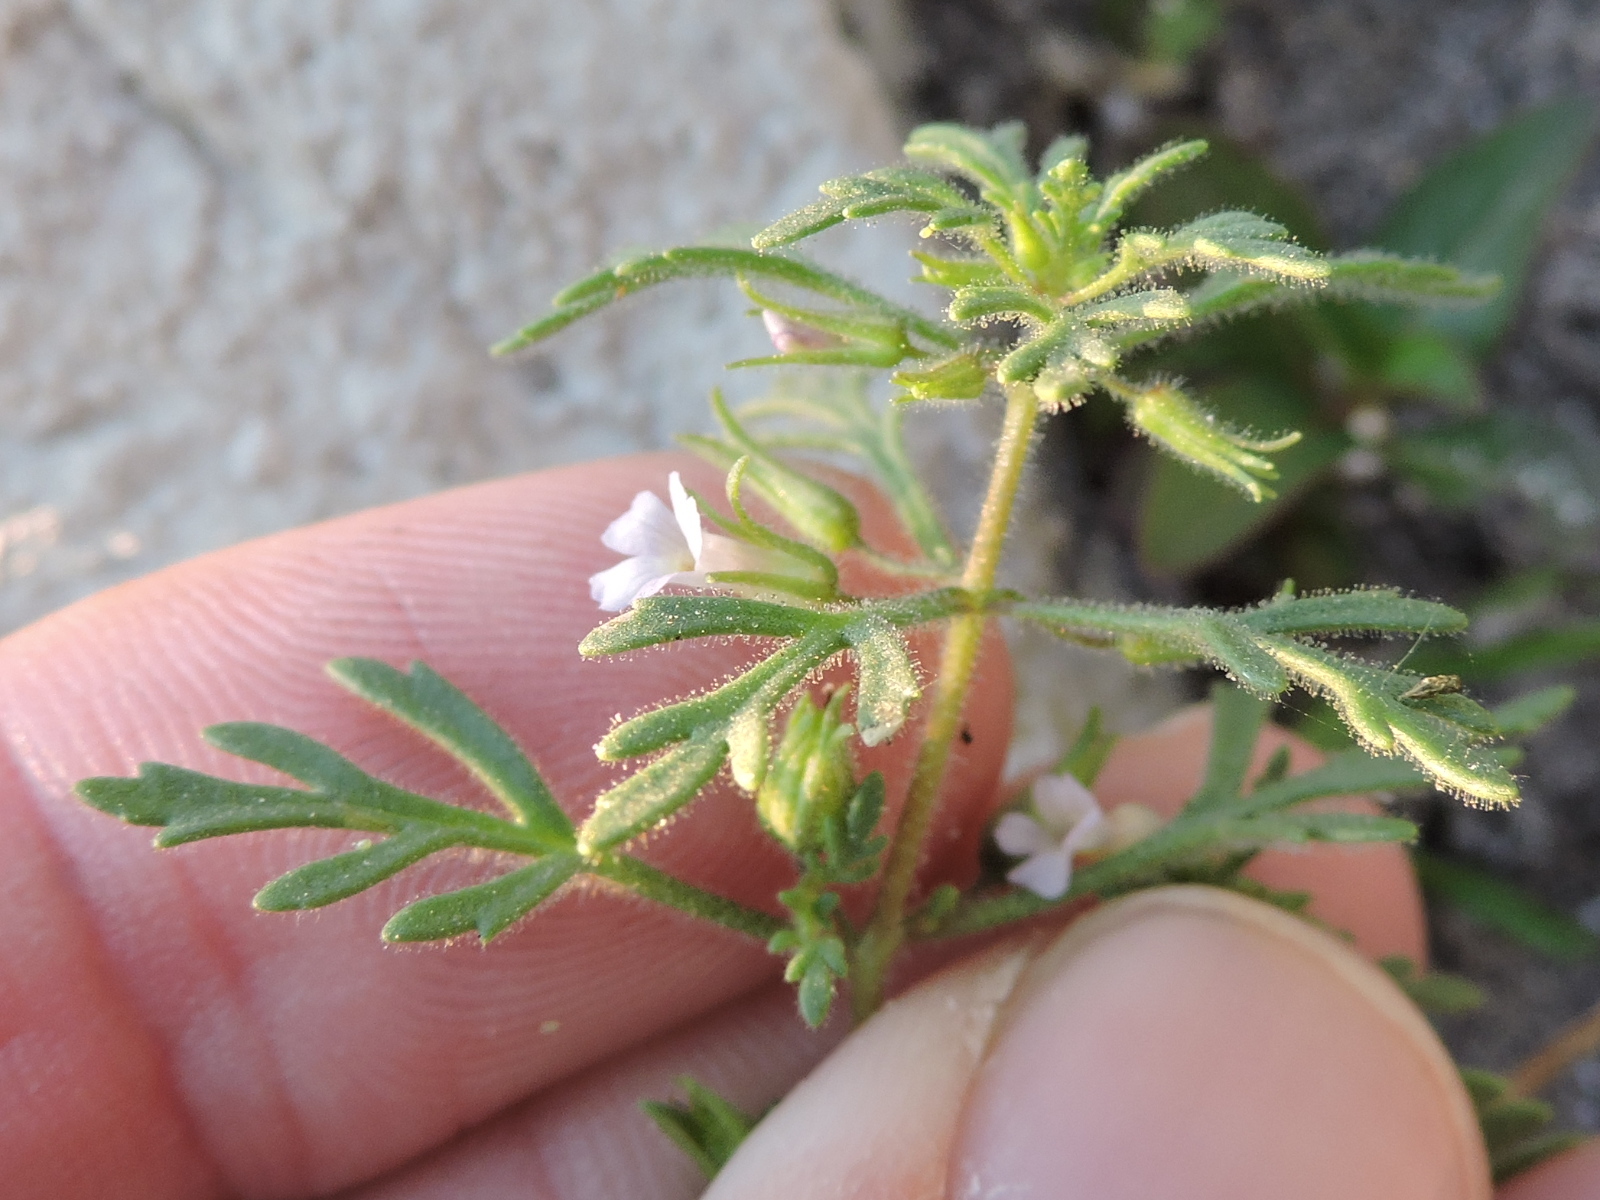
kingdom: Plantae
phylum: Tracheophyta
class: Magnoliopsida
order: Lamiales
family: Plantaginaceae
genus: Leucospora
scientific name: Leucospora multifida
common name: Narrow-leaf paleseed
